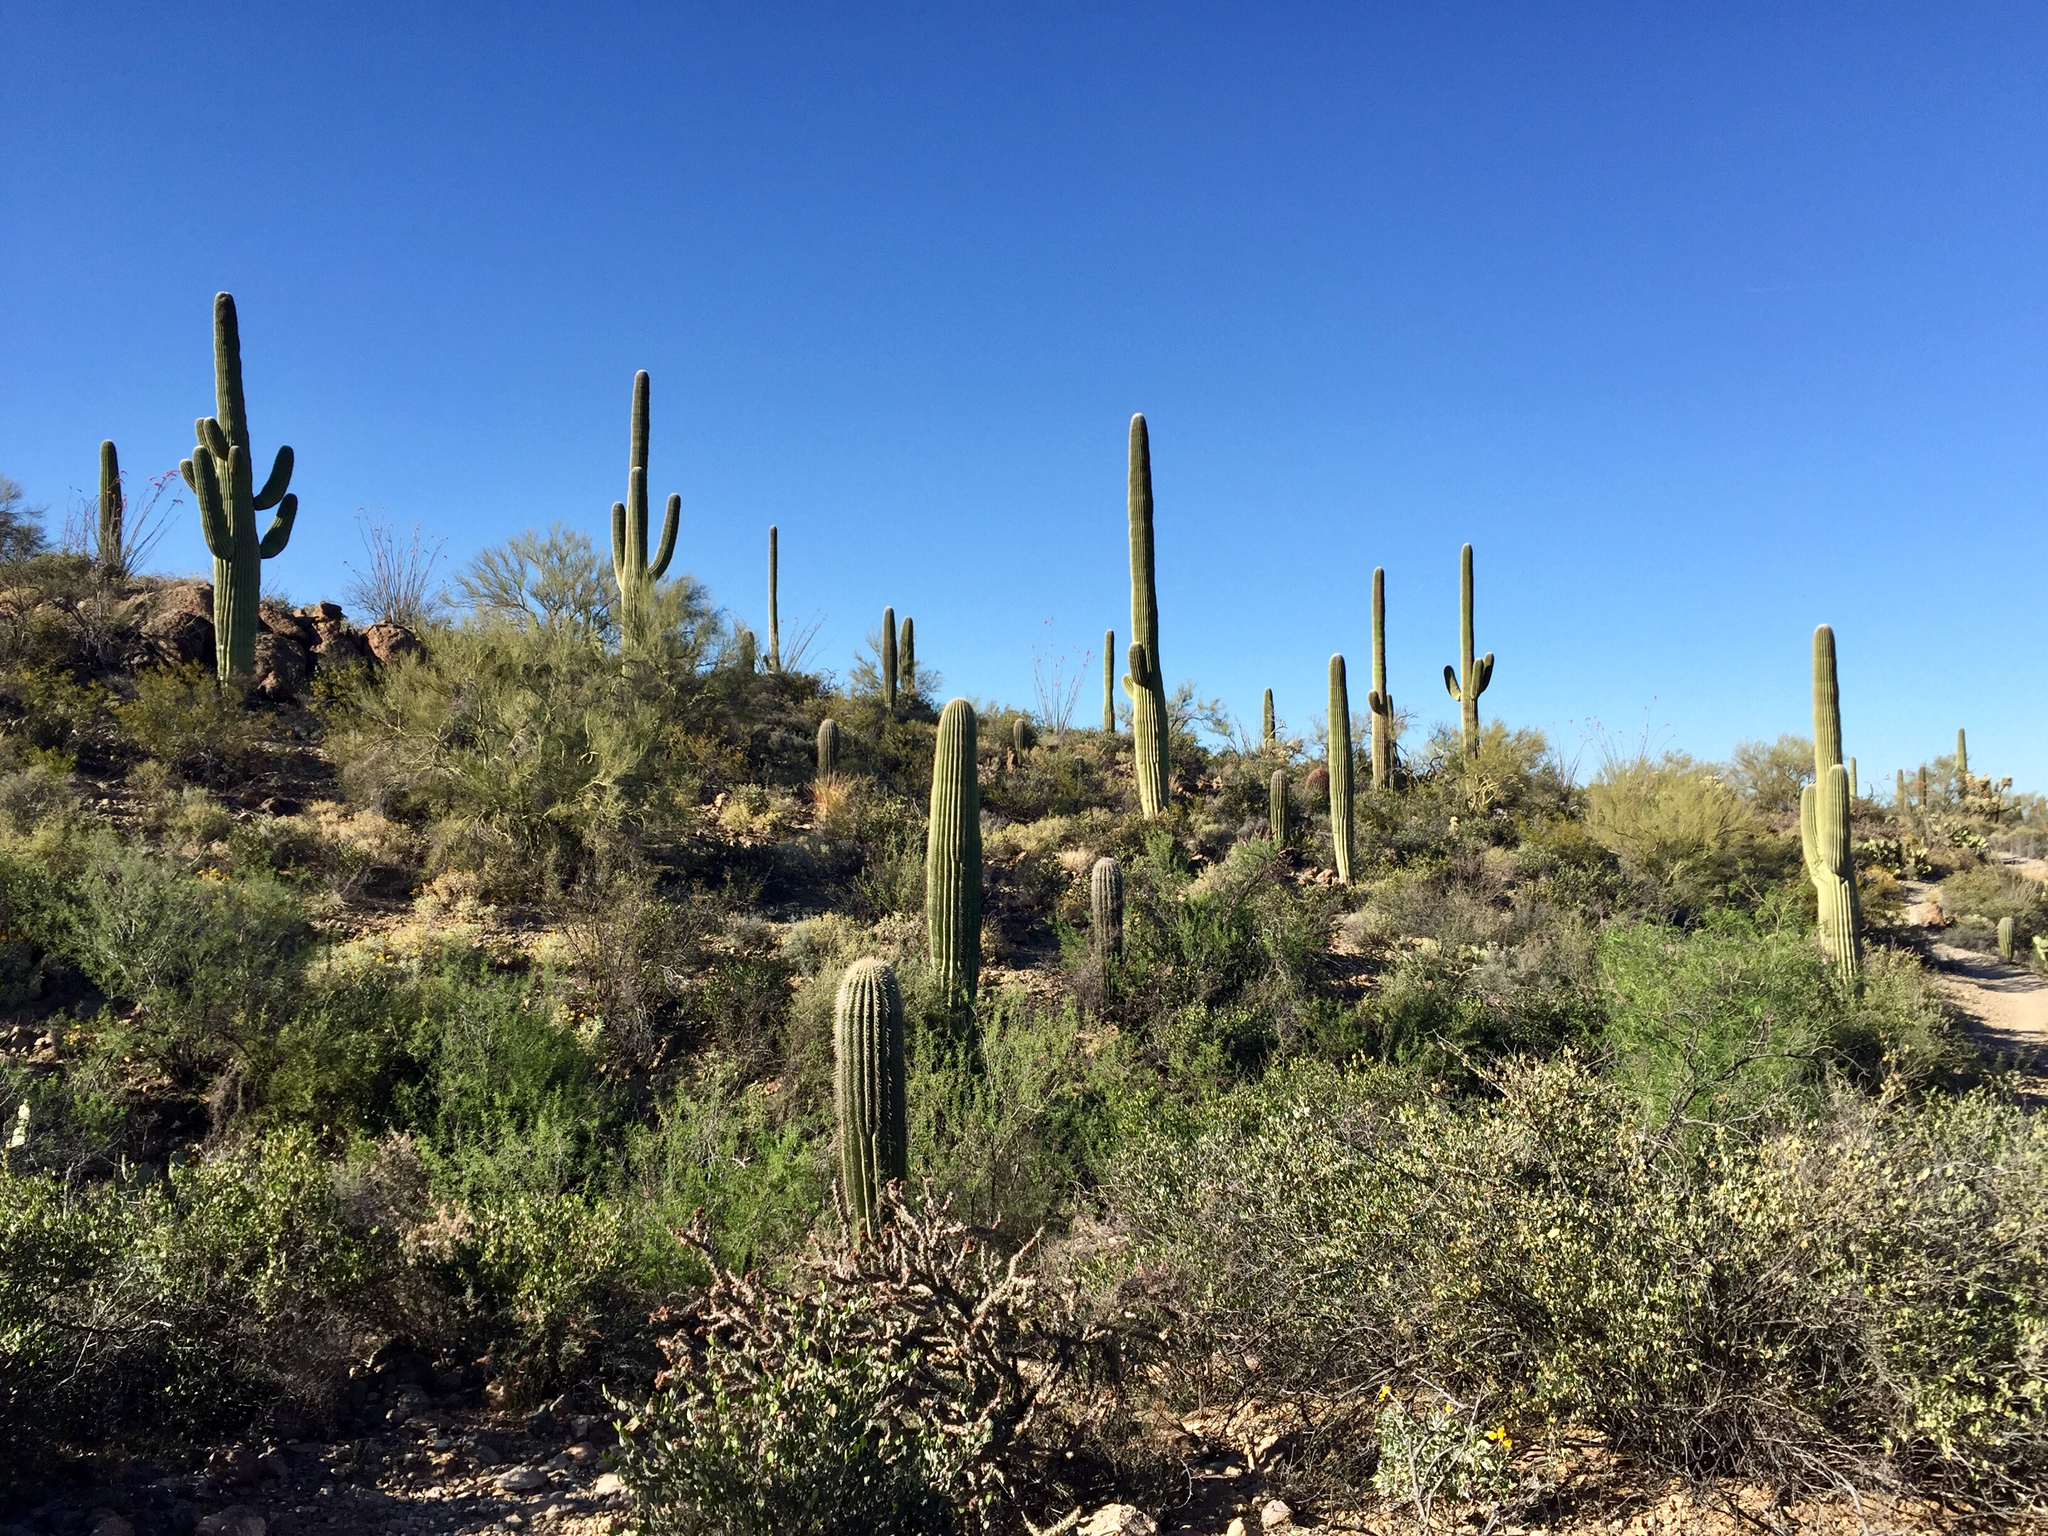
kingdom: Plantae
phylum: Tracheophyta
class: Magnoliopsida
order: Caryophyllales
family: Cactaceae
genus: Carnegiea
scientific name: Carnegiea gigantea
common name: Saguaro
